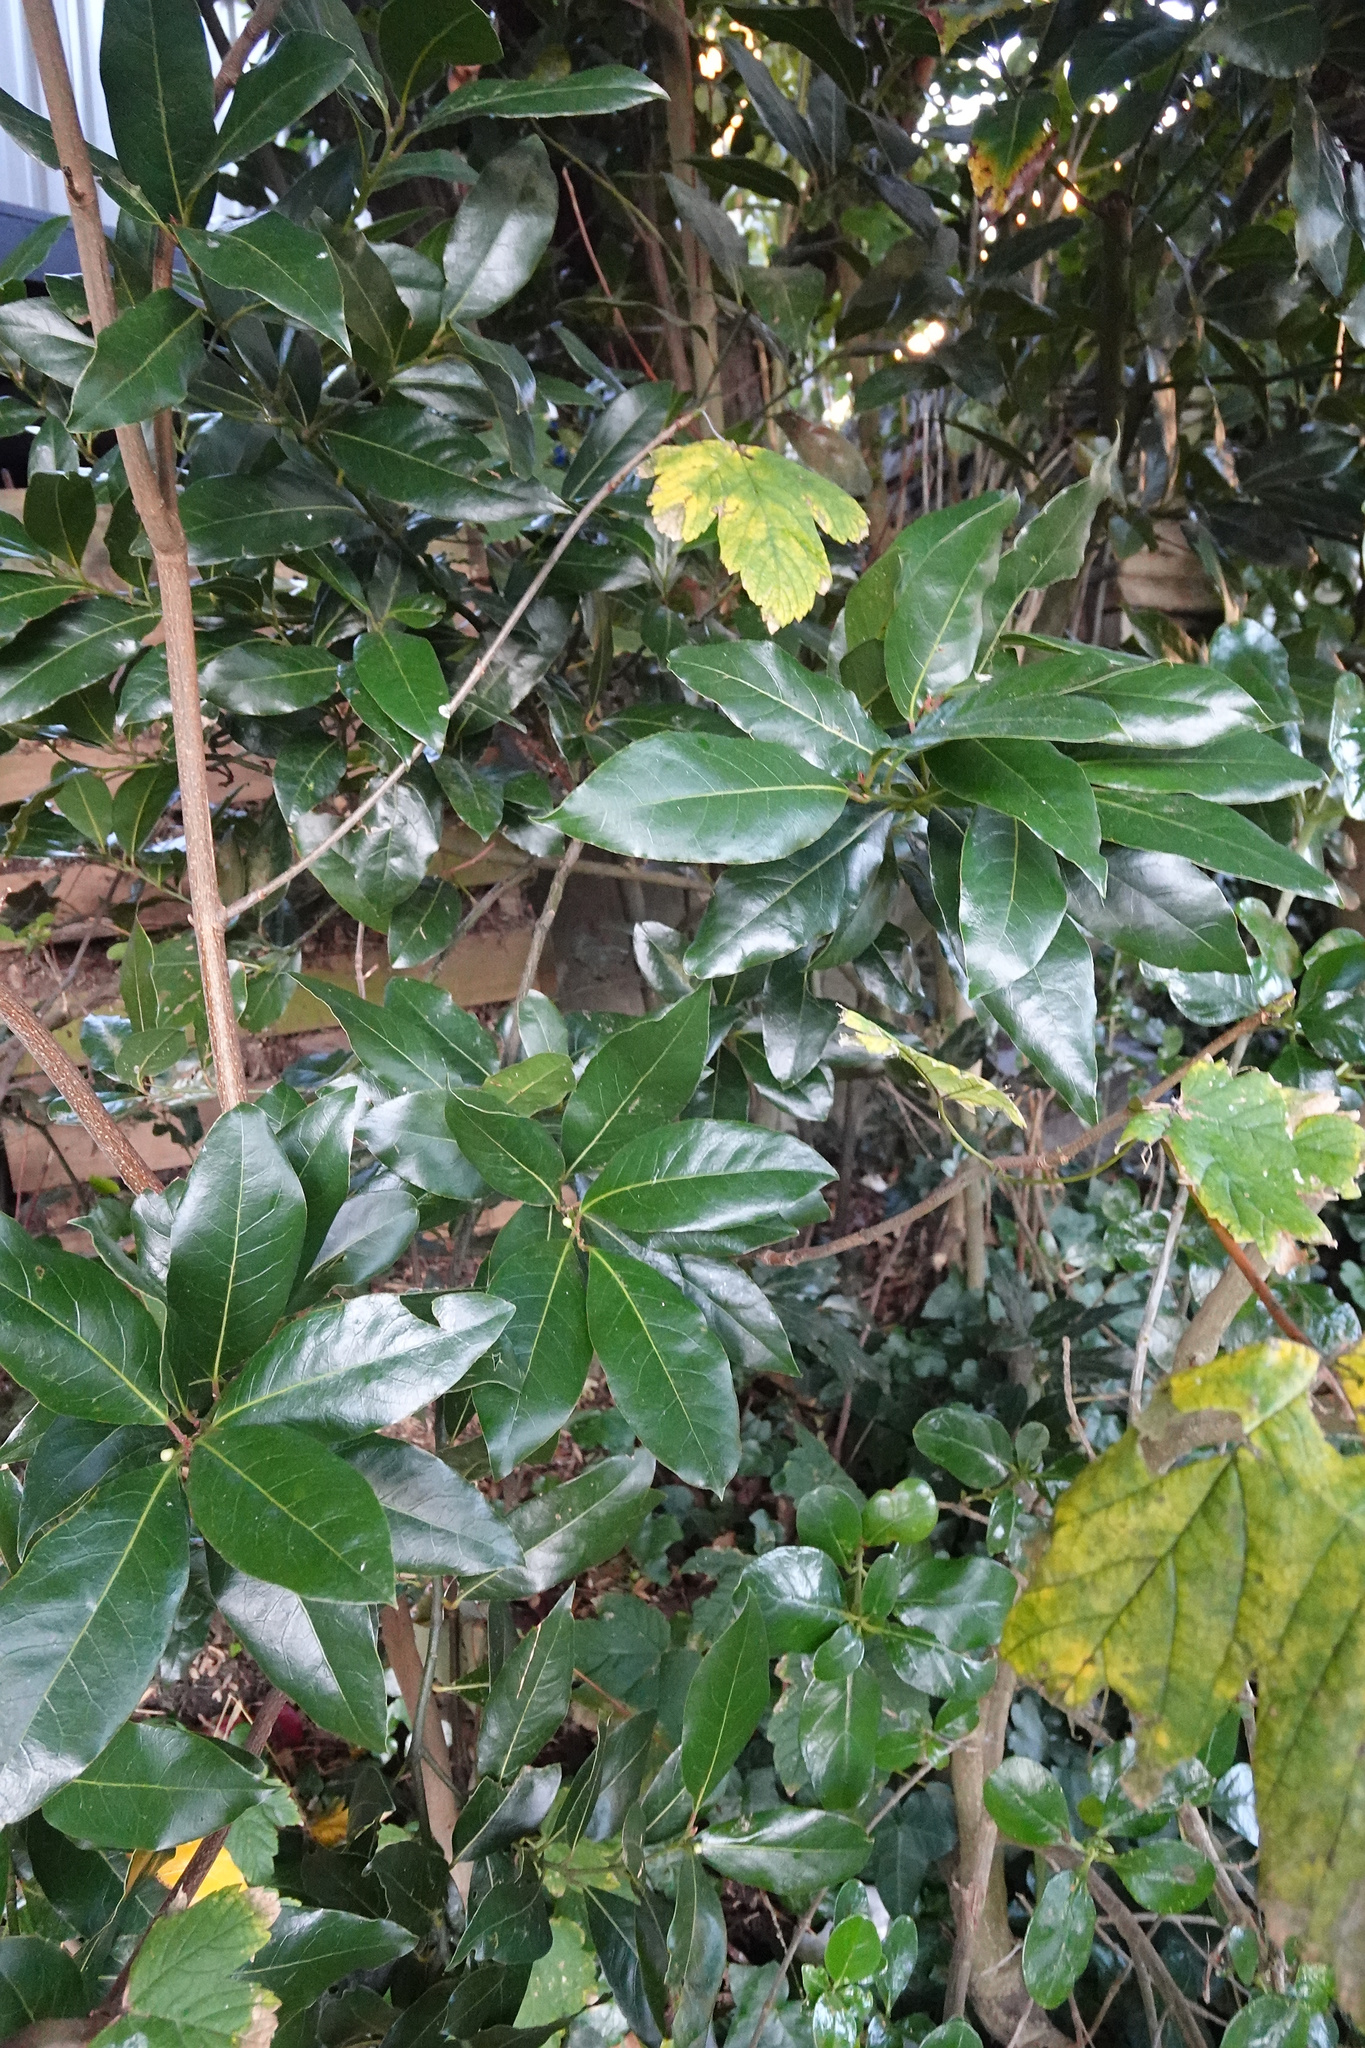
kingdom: Plantae
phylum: Tracheophyta
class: Magnoliopsida
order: Laurales
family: Lauraceae
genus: Laurus
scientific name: Laurus nobilis
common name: Bay
